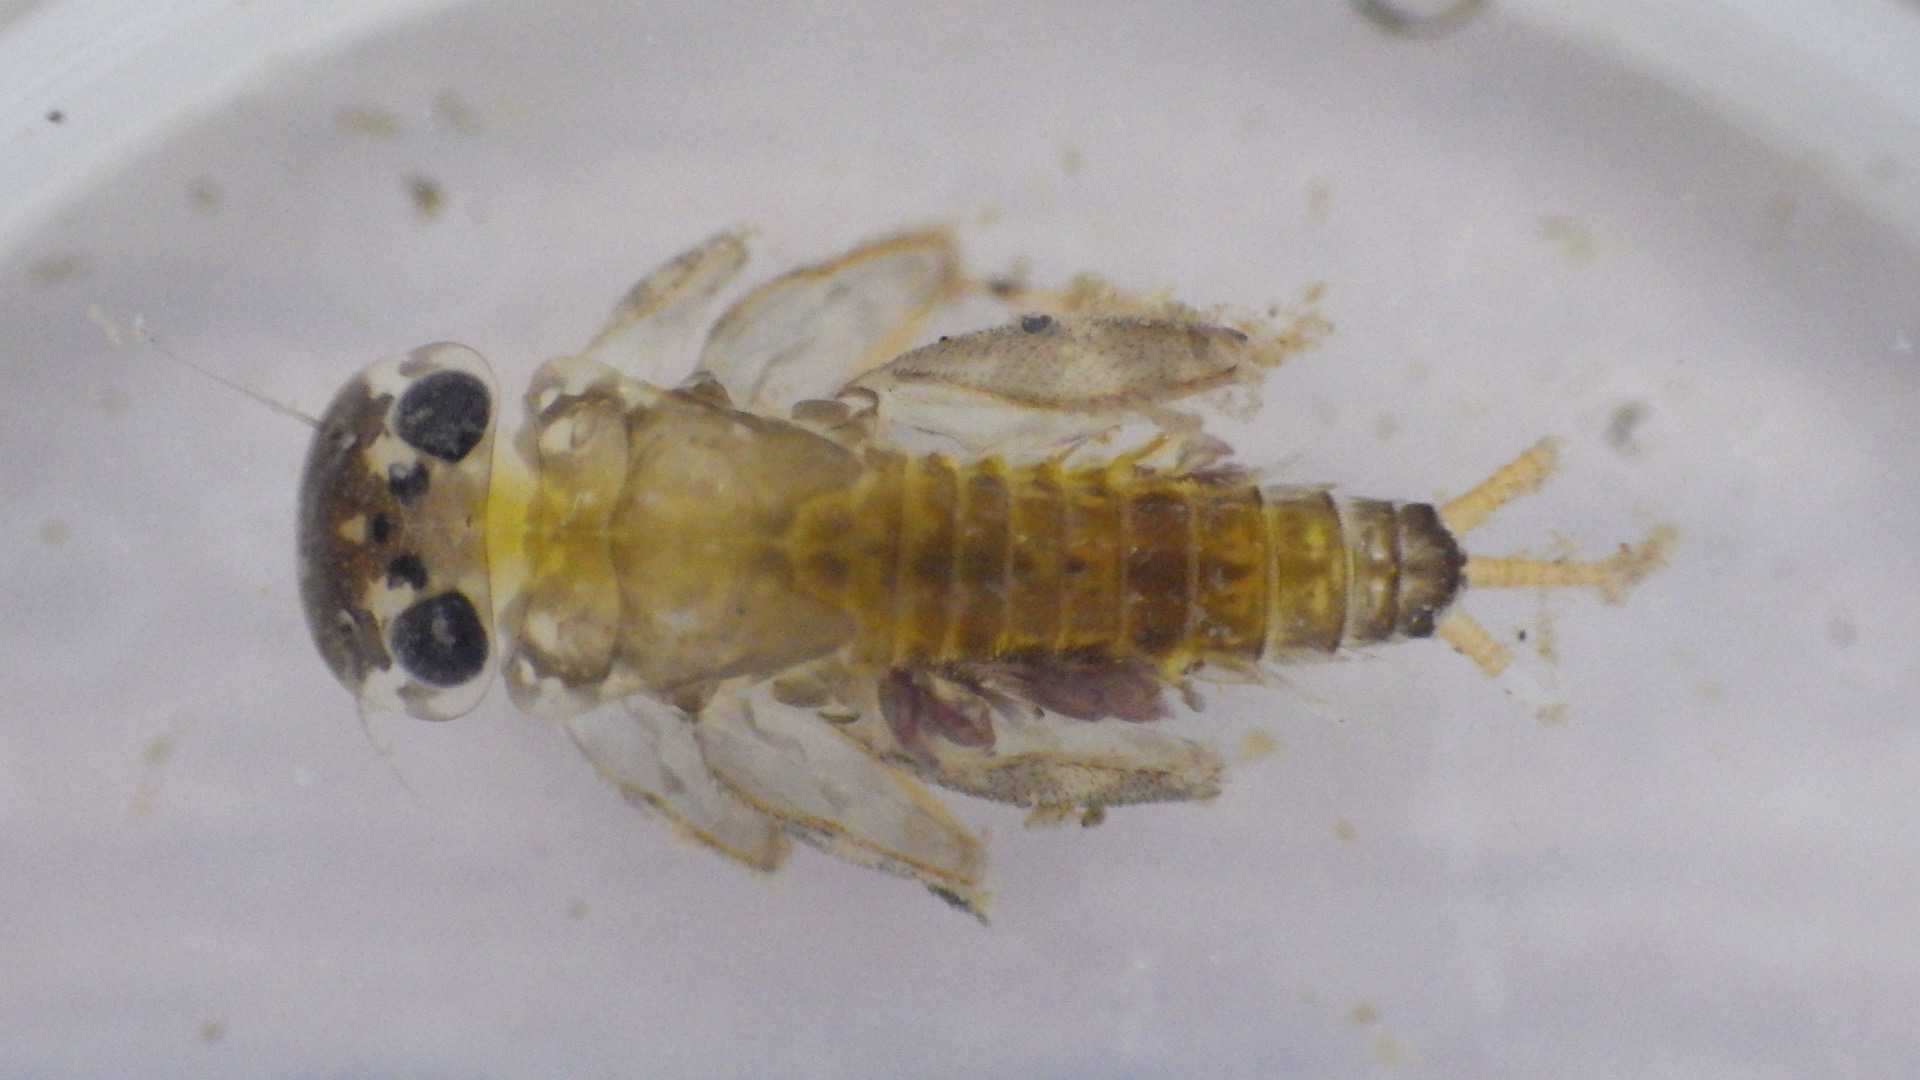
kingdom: Animalia
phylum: Arthropoda
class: Insecta
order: Ephemeroptera
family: Heptageniidae
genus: Maccaffertium
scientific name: Maccaffertium ithaca
